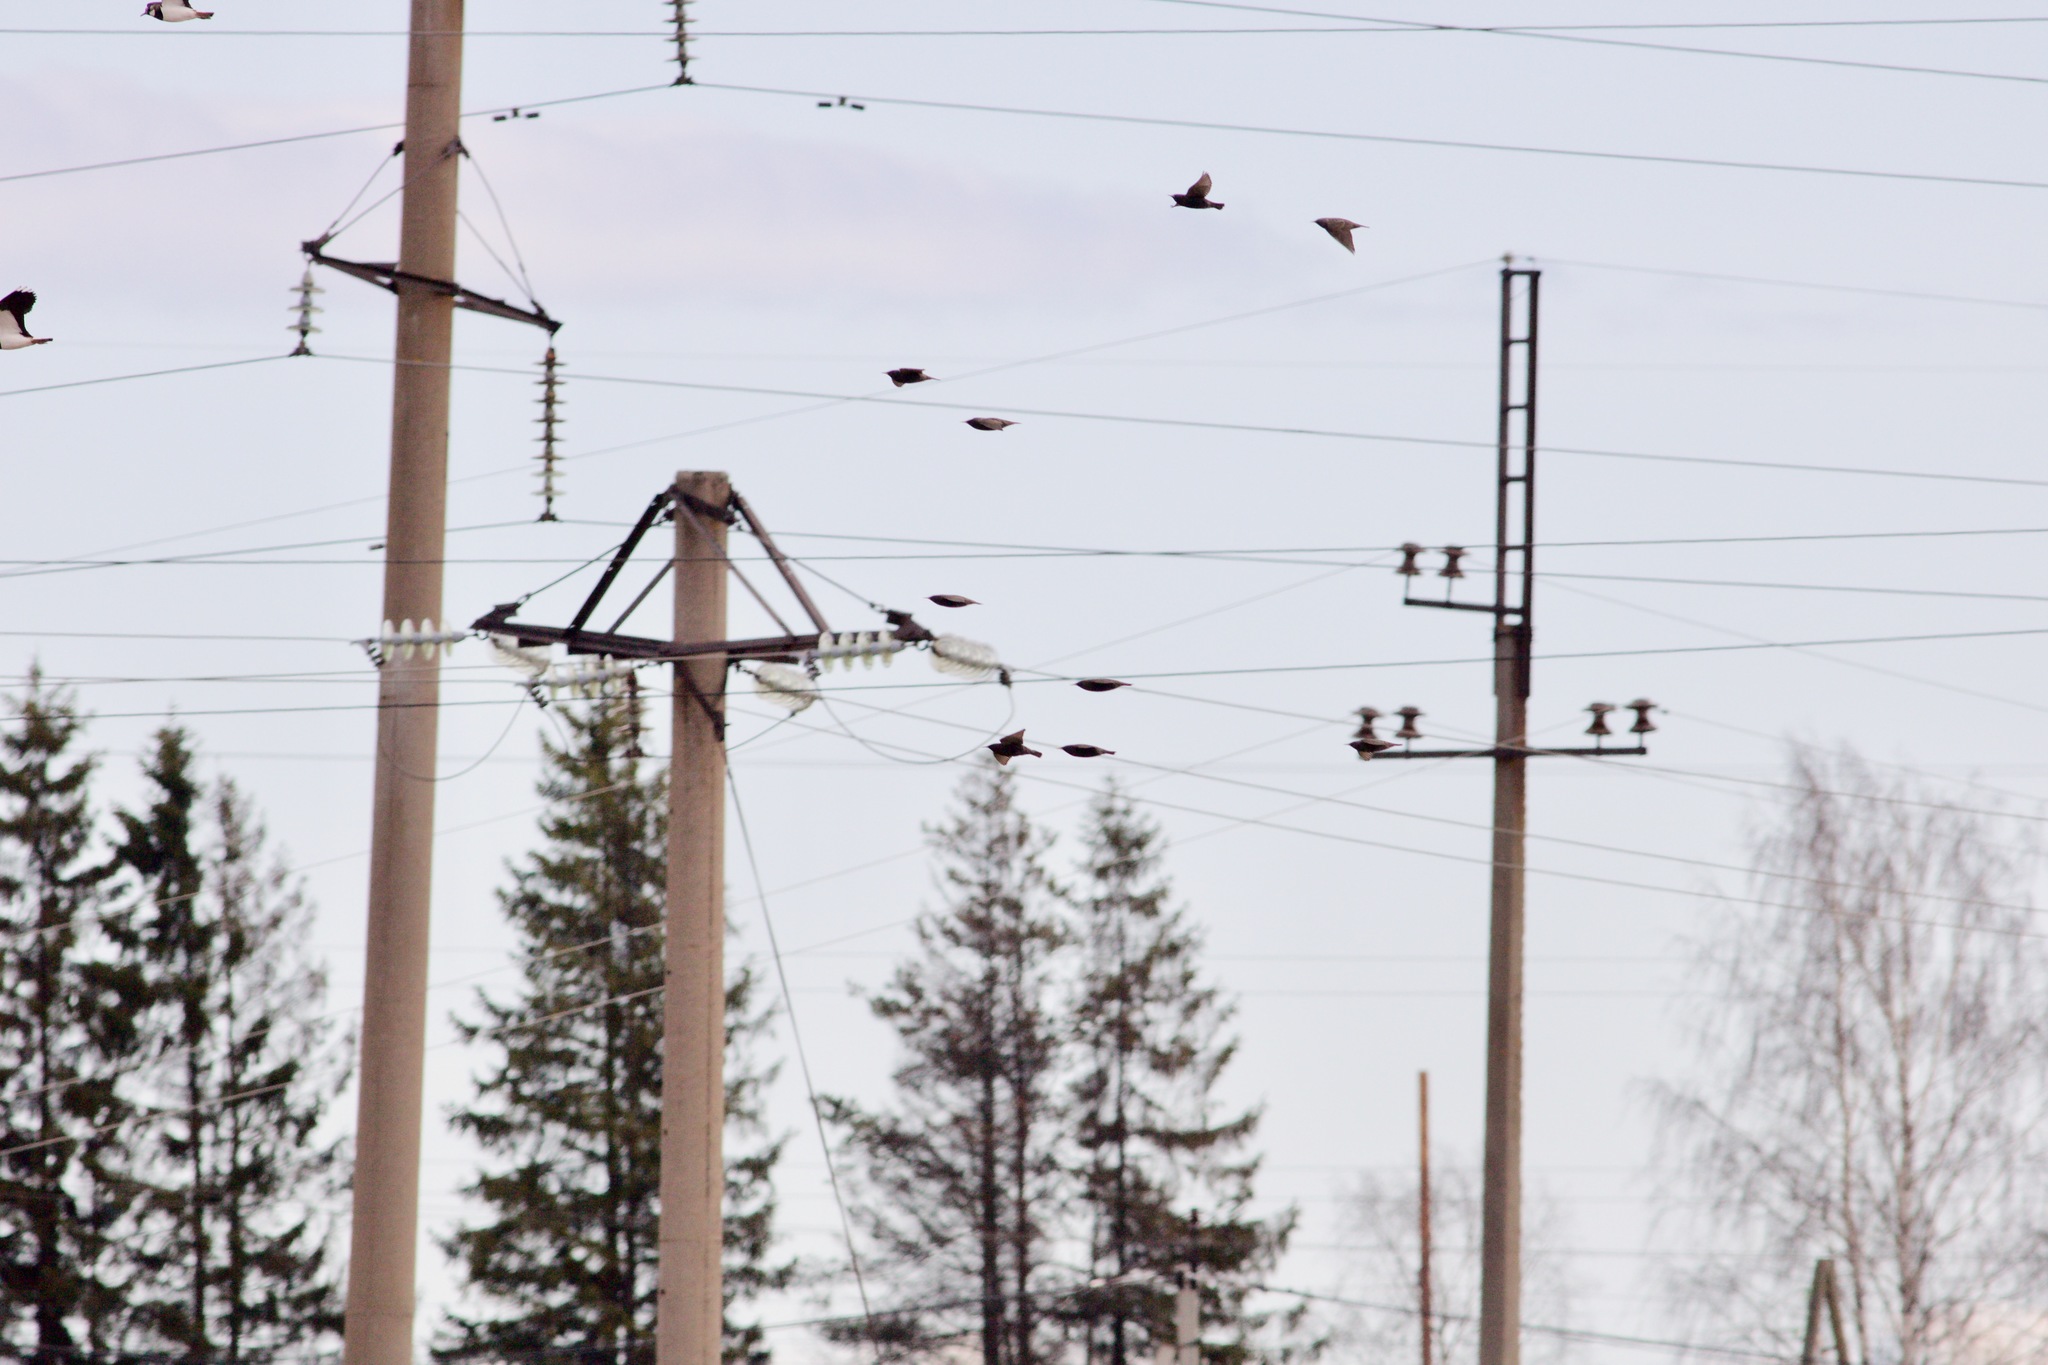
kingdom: Animalia
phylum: Chordata
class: Aves
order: Passeriformes
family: Sturnidae
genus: Sturnus
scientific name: Sturnus vulgaris
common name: Common starling
